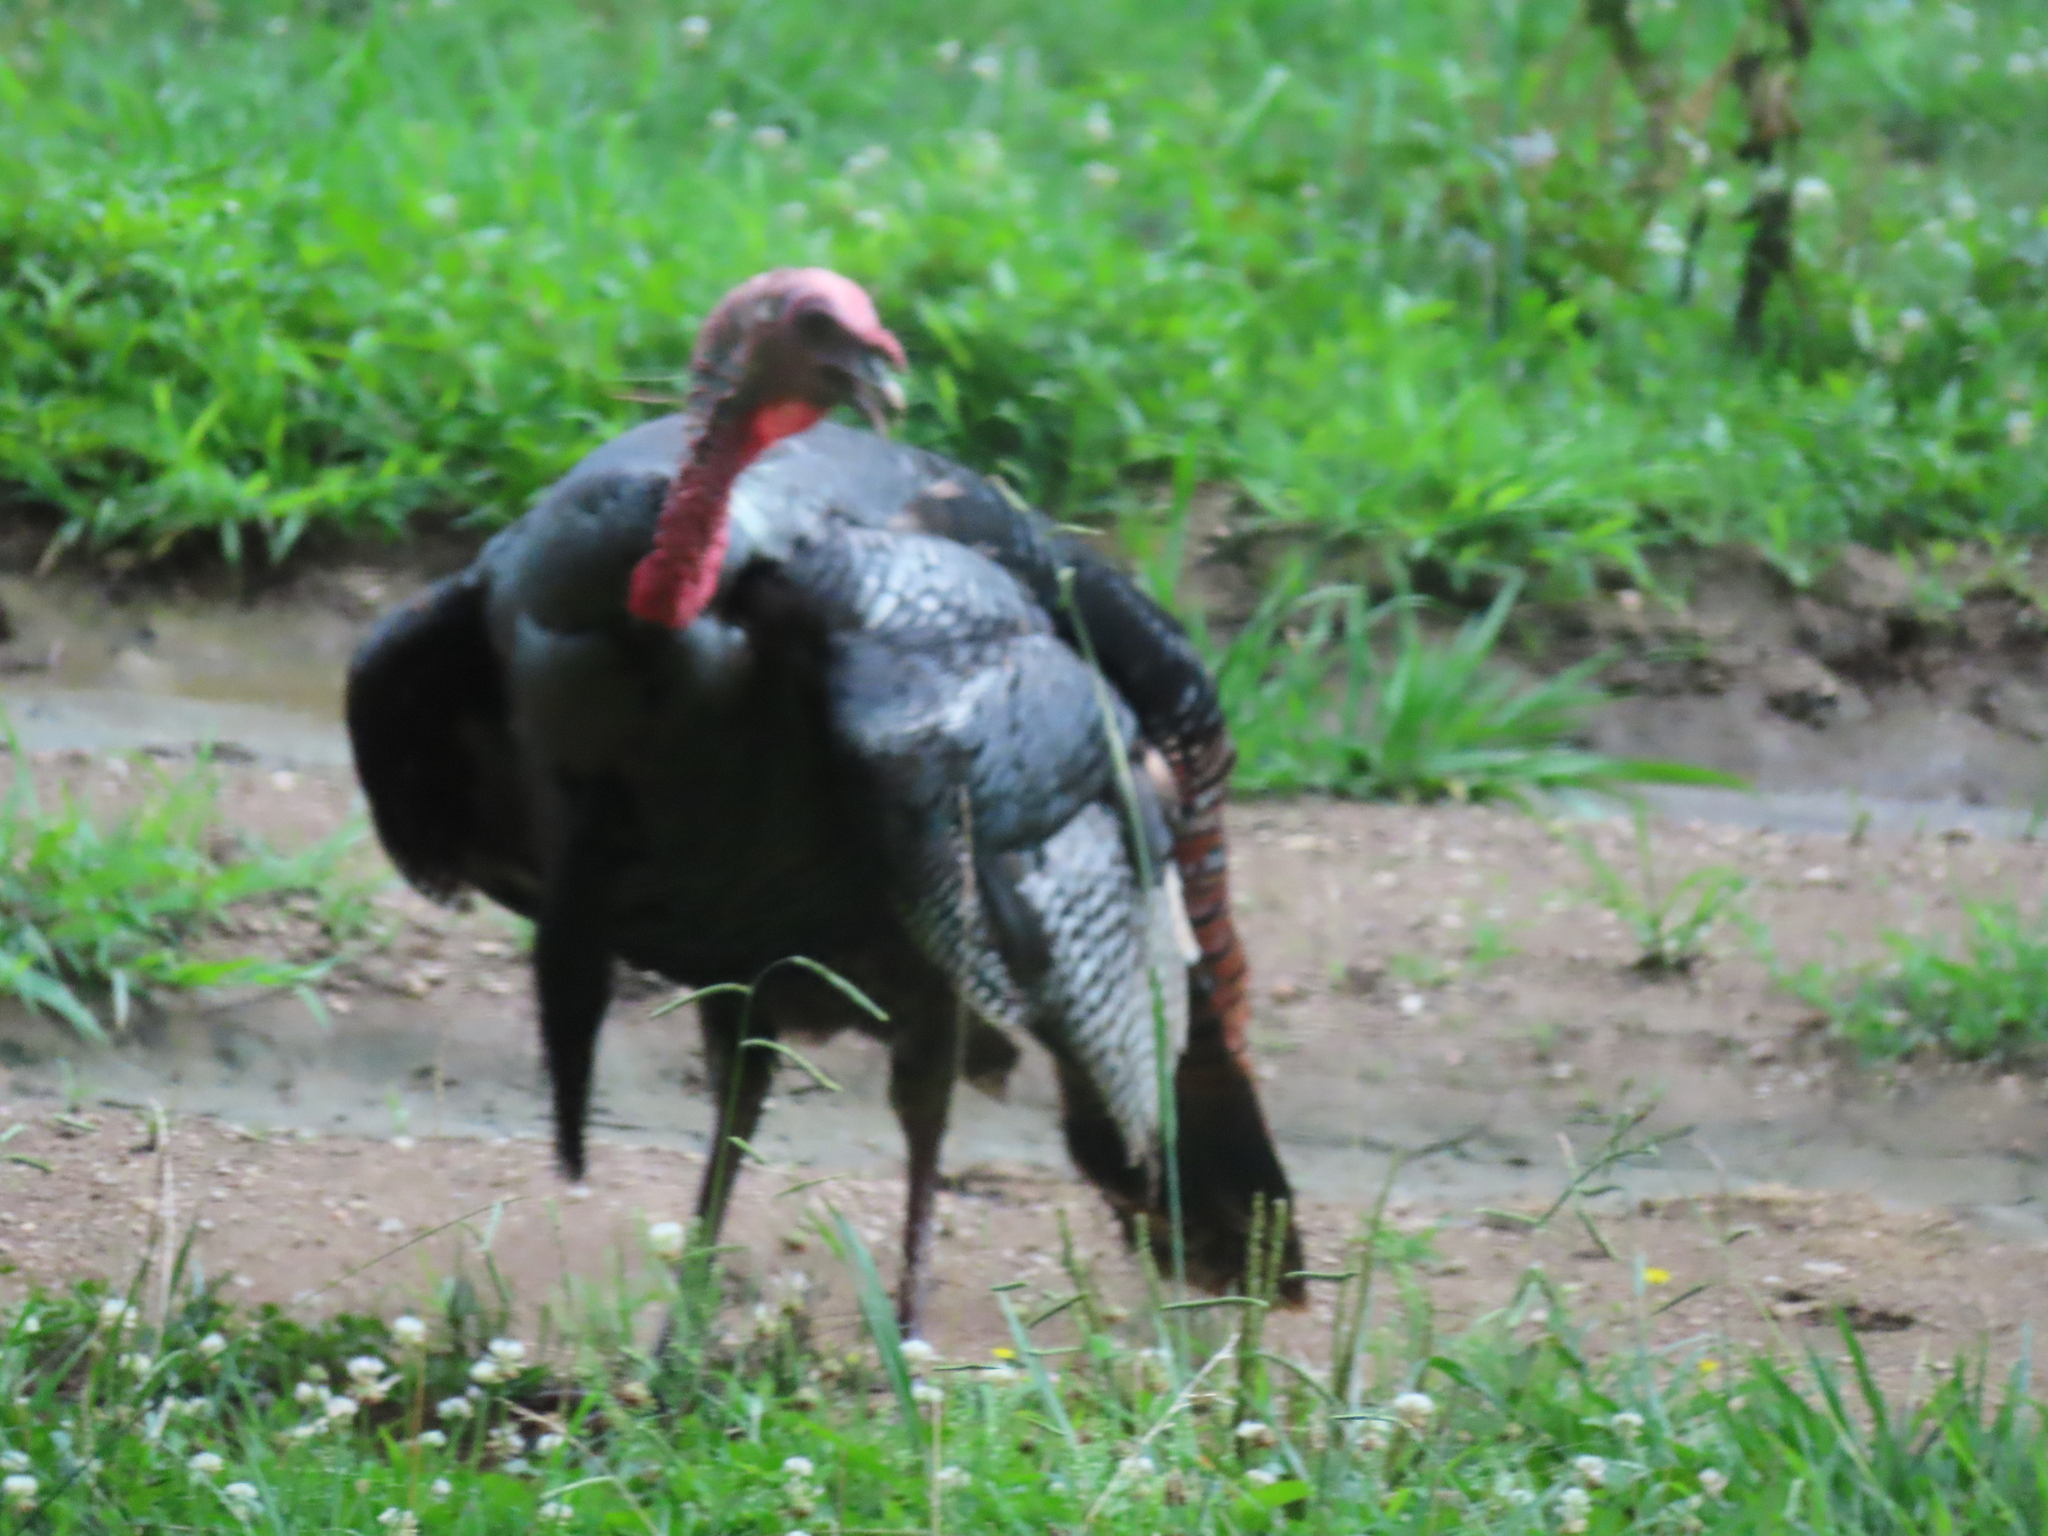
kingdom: Animalia
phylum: Chordata
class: Aves
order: Galliformes
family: Phasianidae
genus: Meleagris
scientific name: Meleagris gallopavo
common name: Wild turkey
